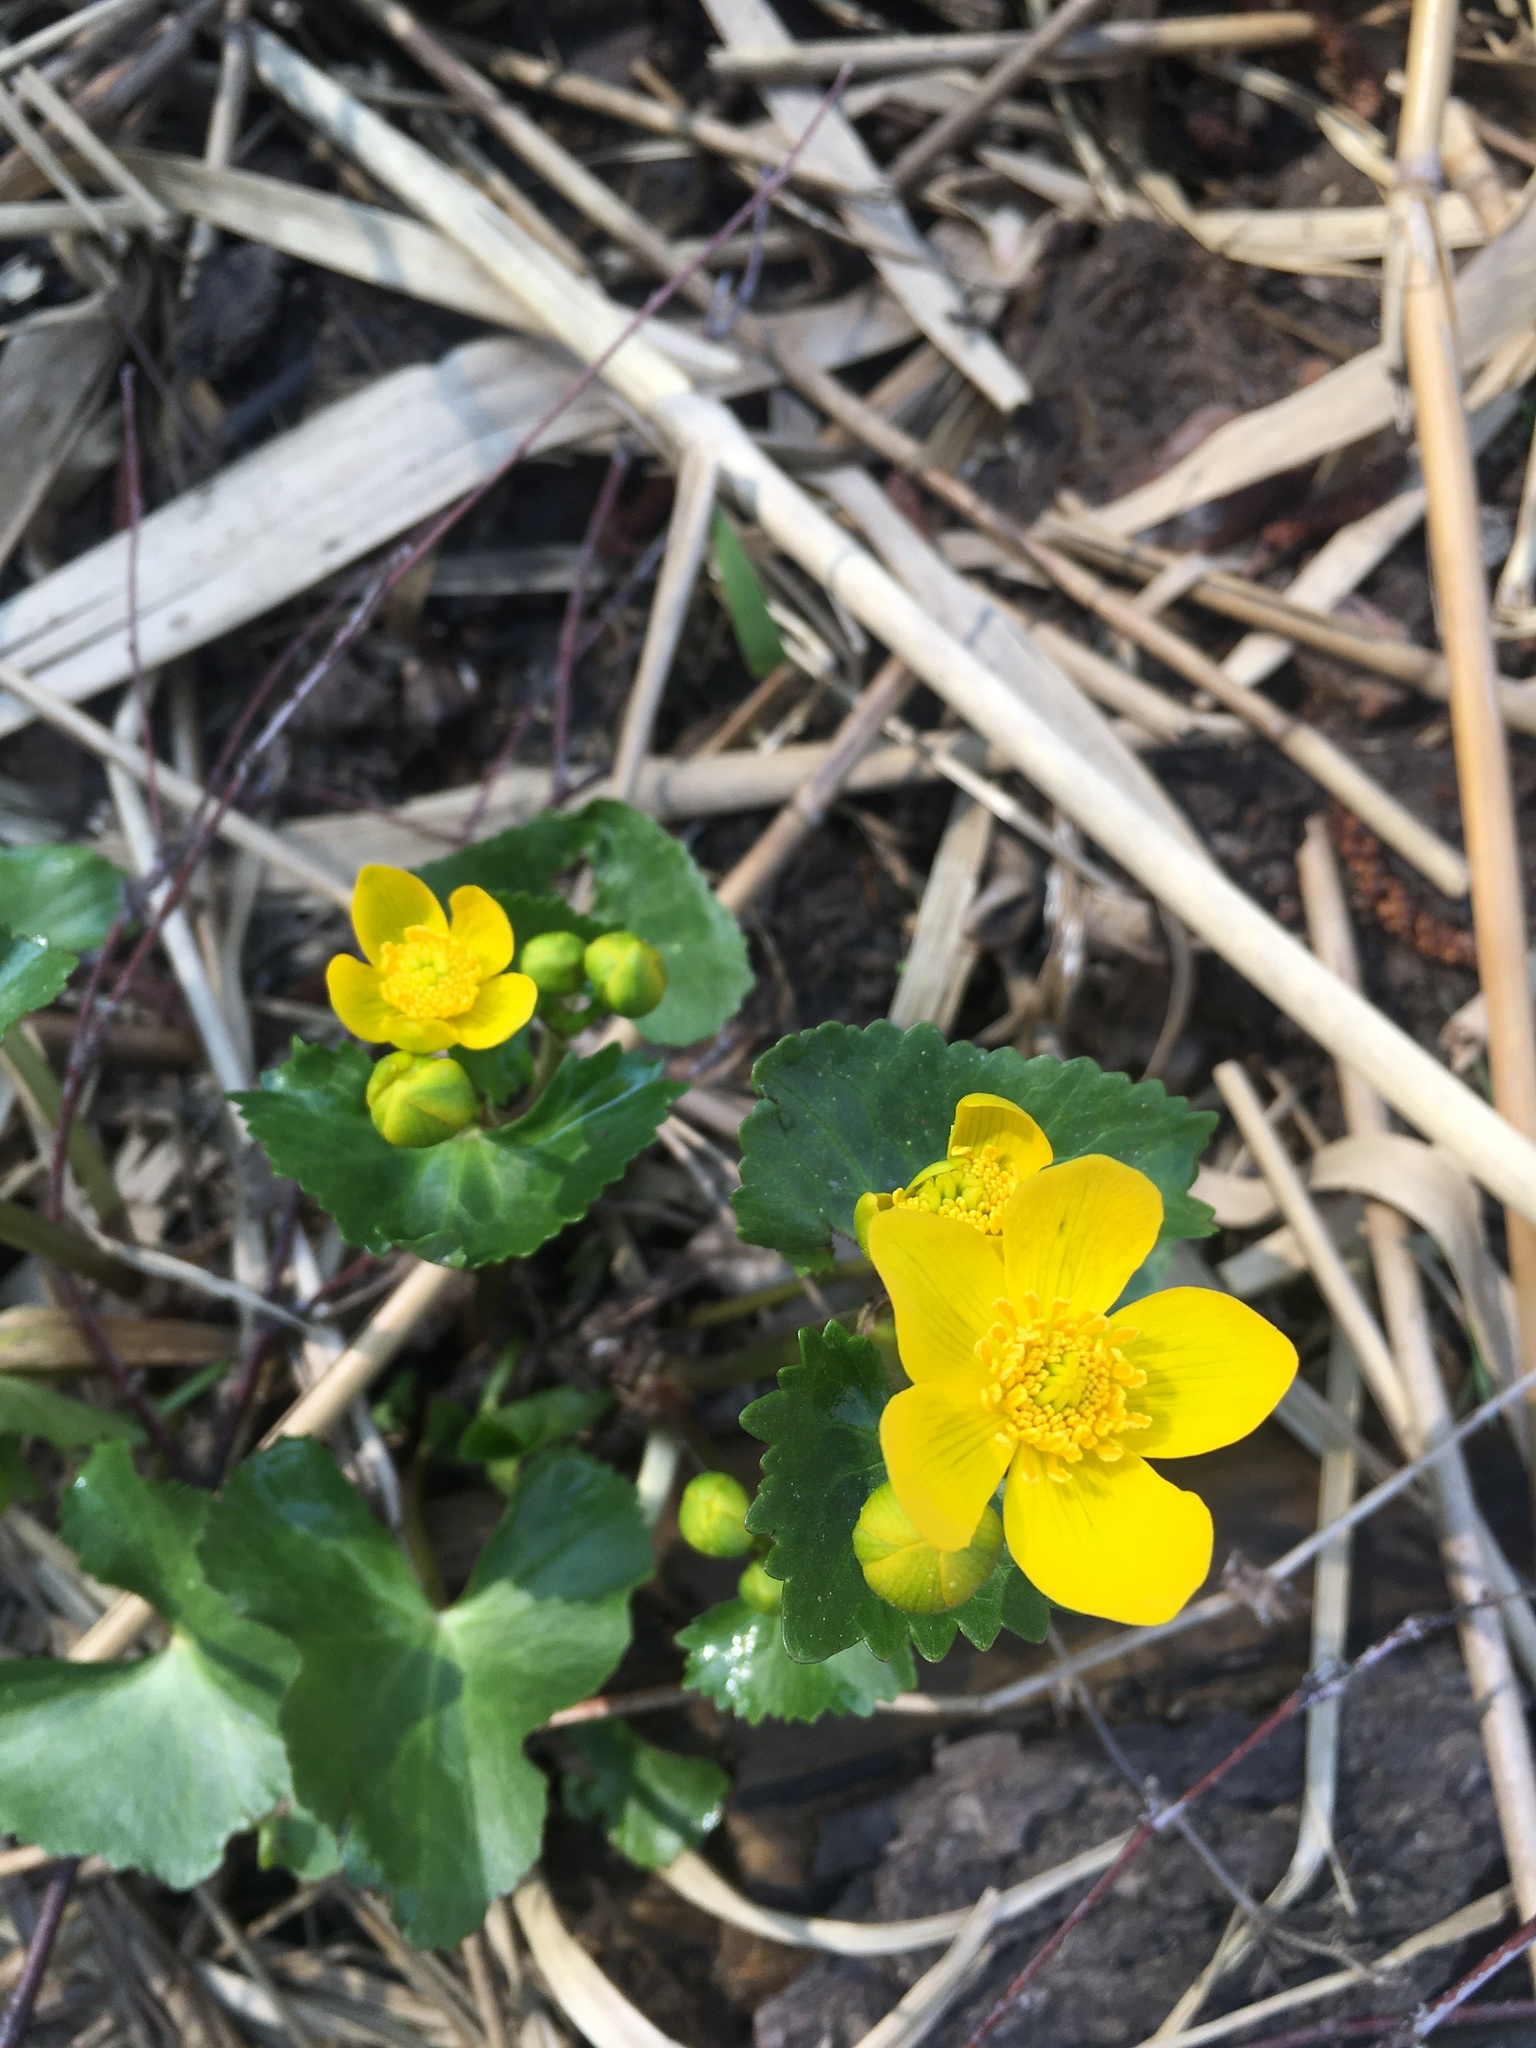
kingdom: Plantae
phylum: Tracheophyta
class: Magnoliopsida
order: Ranunculales
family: Ranunculaceae
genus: Caltha
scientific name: Caltha palustris
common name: Marsh marigold
